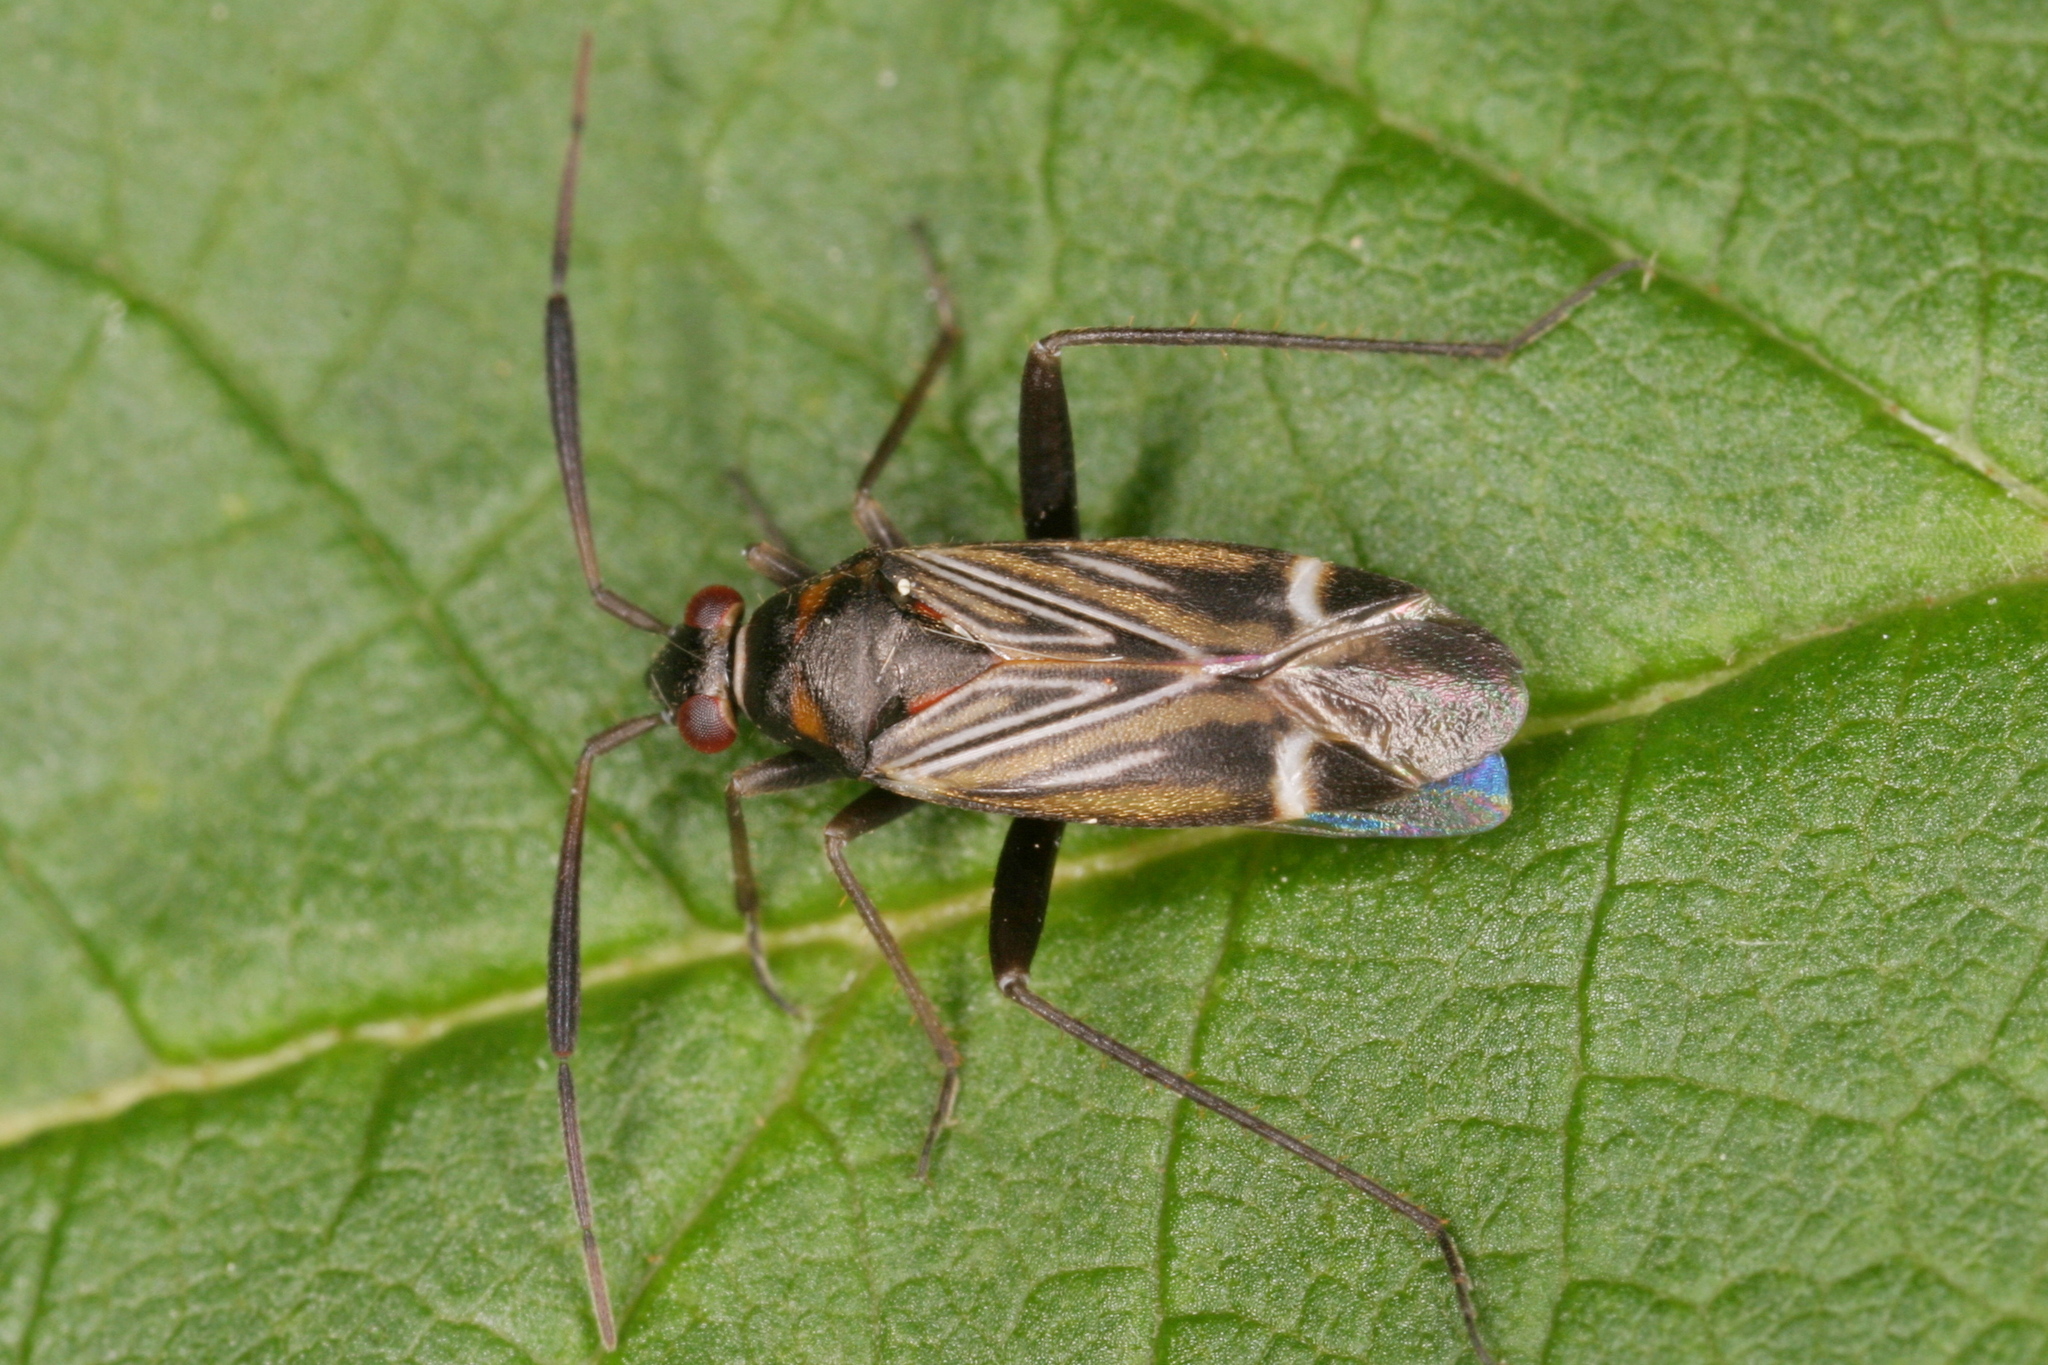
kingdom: Animalia
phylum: Arthropoda
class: Insecta
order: Hemiptera
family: Miridae
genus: Cremnocephalus
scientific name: Cremnocephalus alpestris
